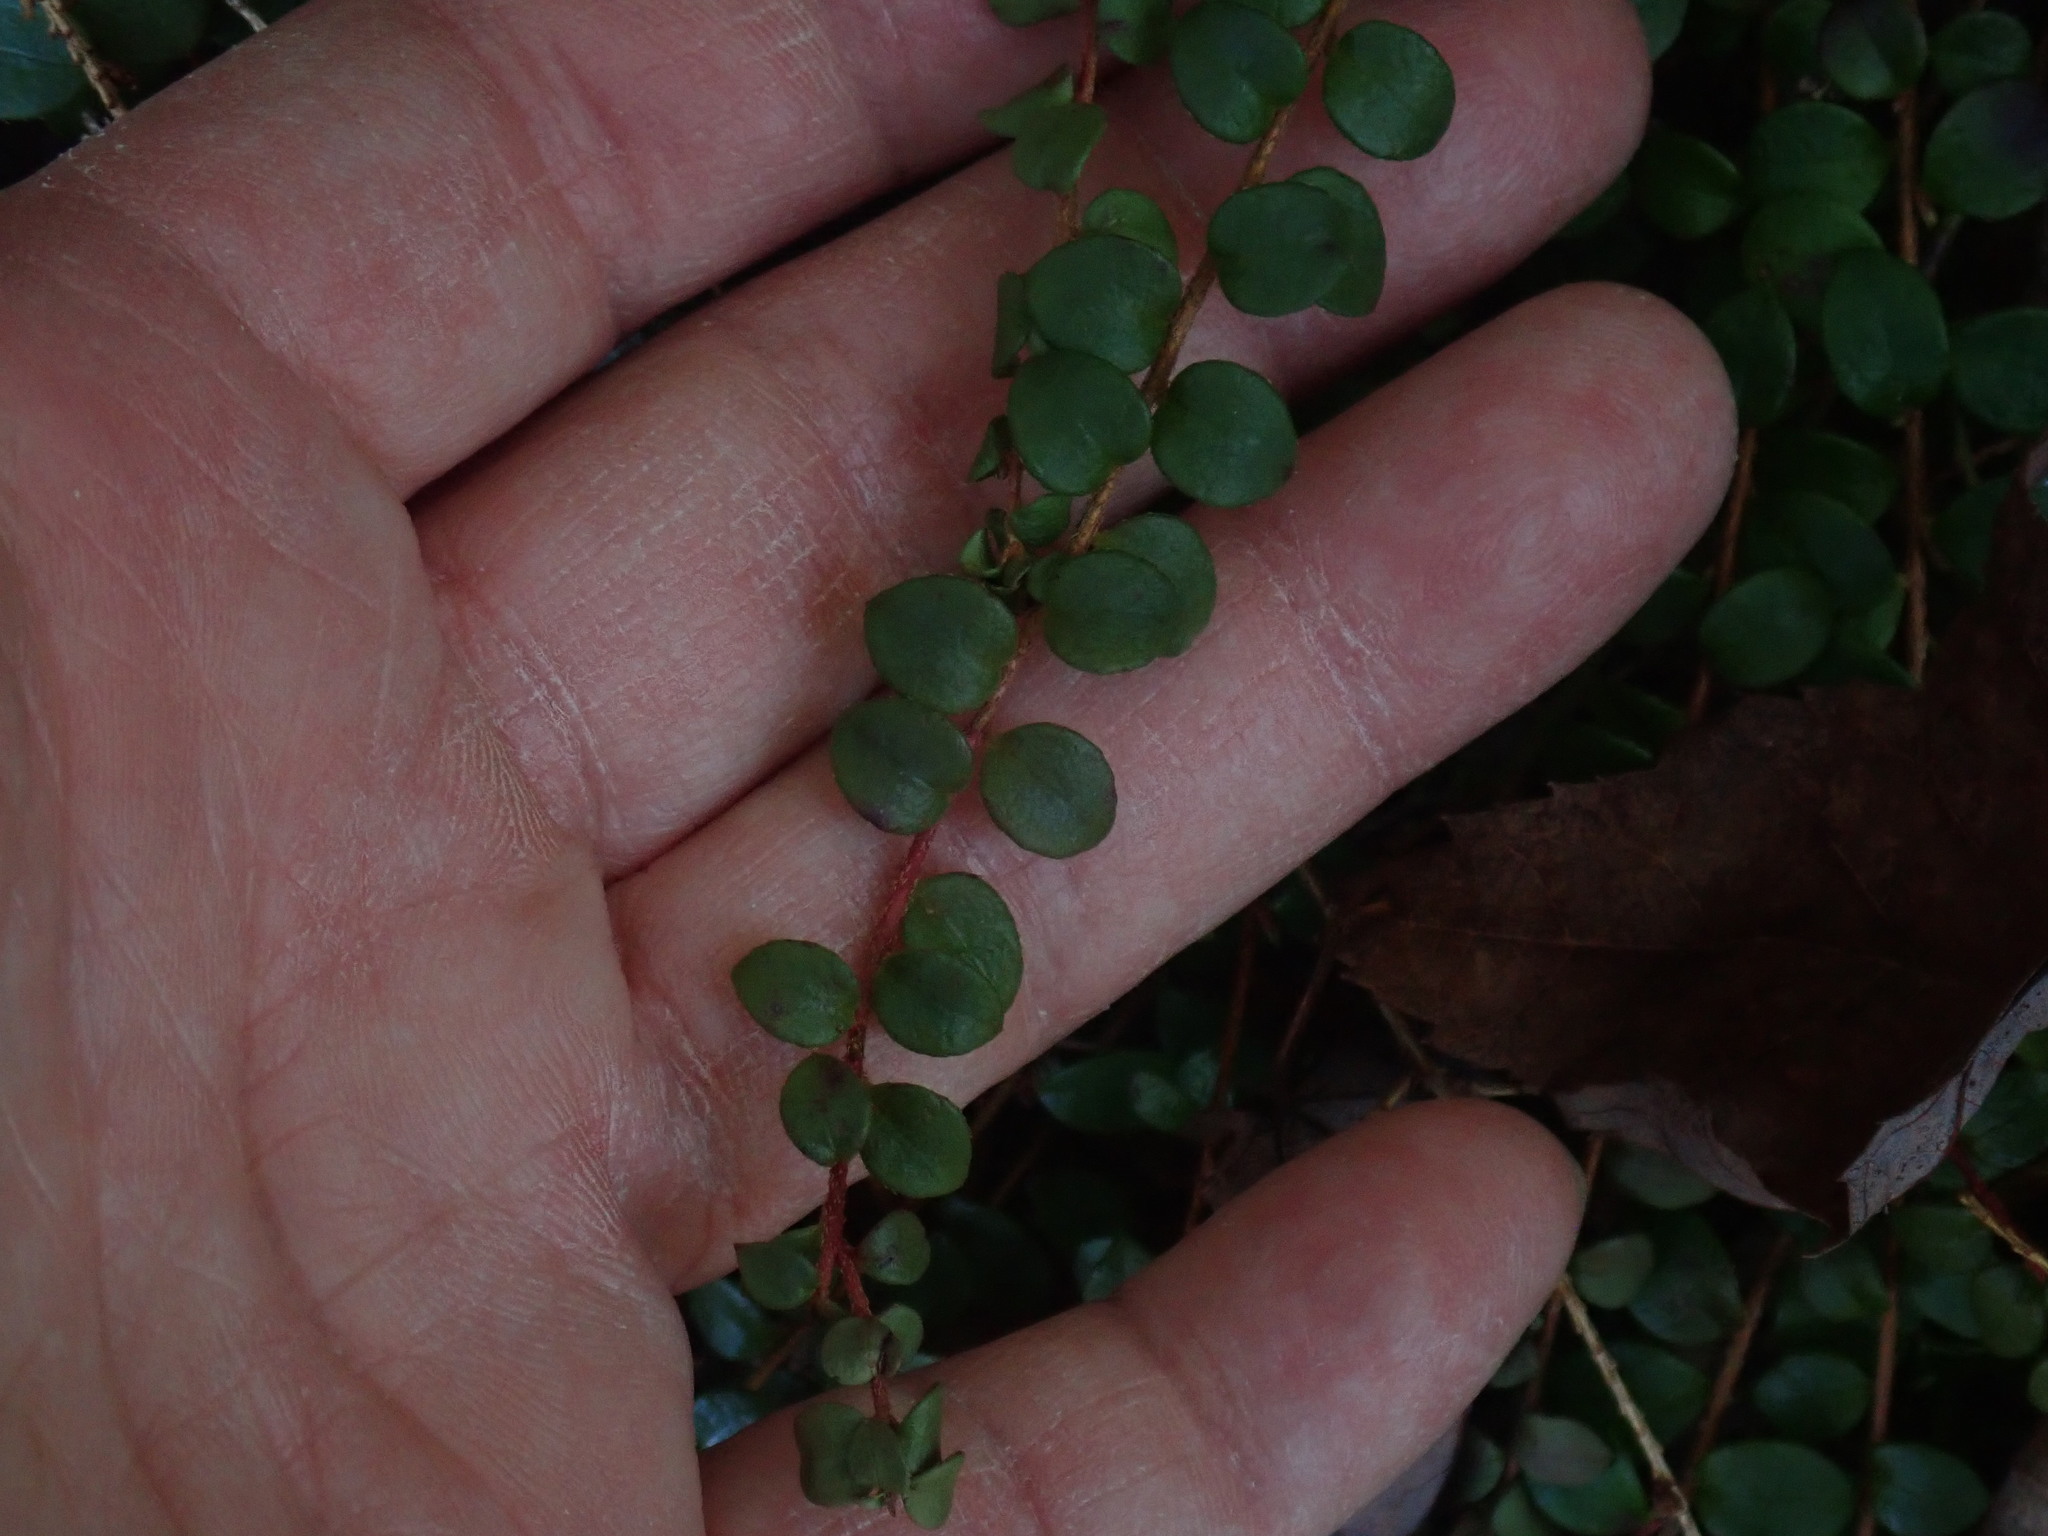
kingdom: Plantae
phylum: Tracheophyta
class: Magnoliopsida
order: Ericales
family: Ericaceae
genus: Gaultheria
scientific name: Gaultheria hispidula
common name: Cancer wintergreen
